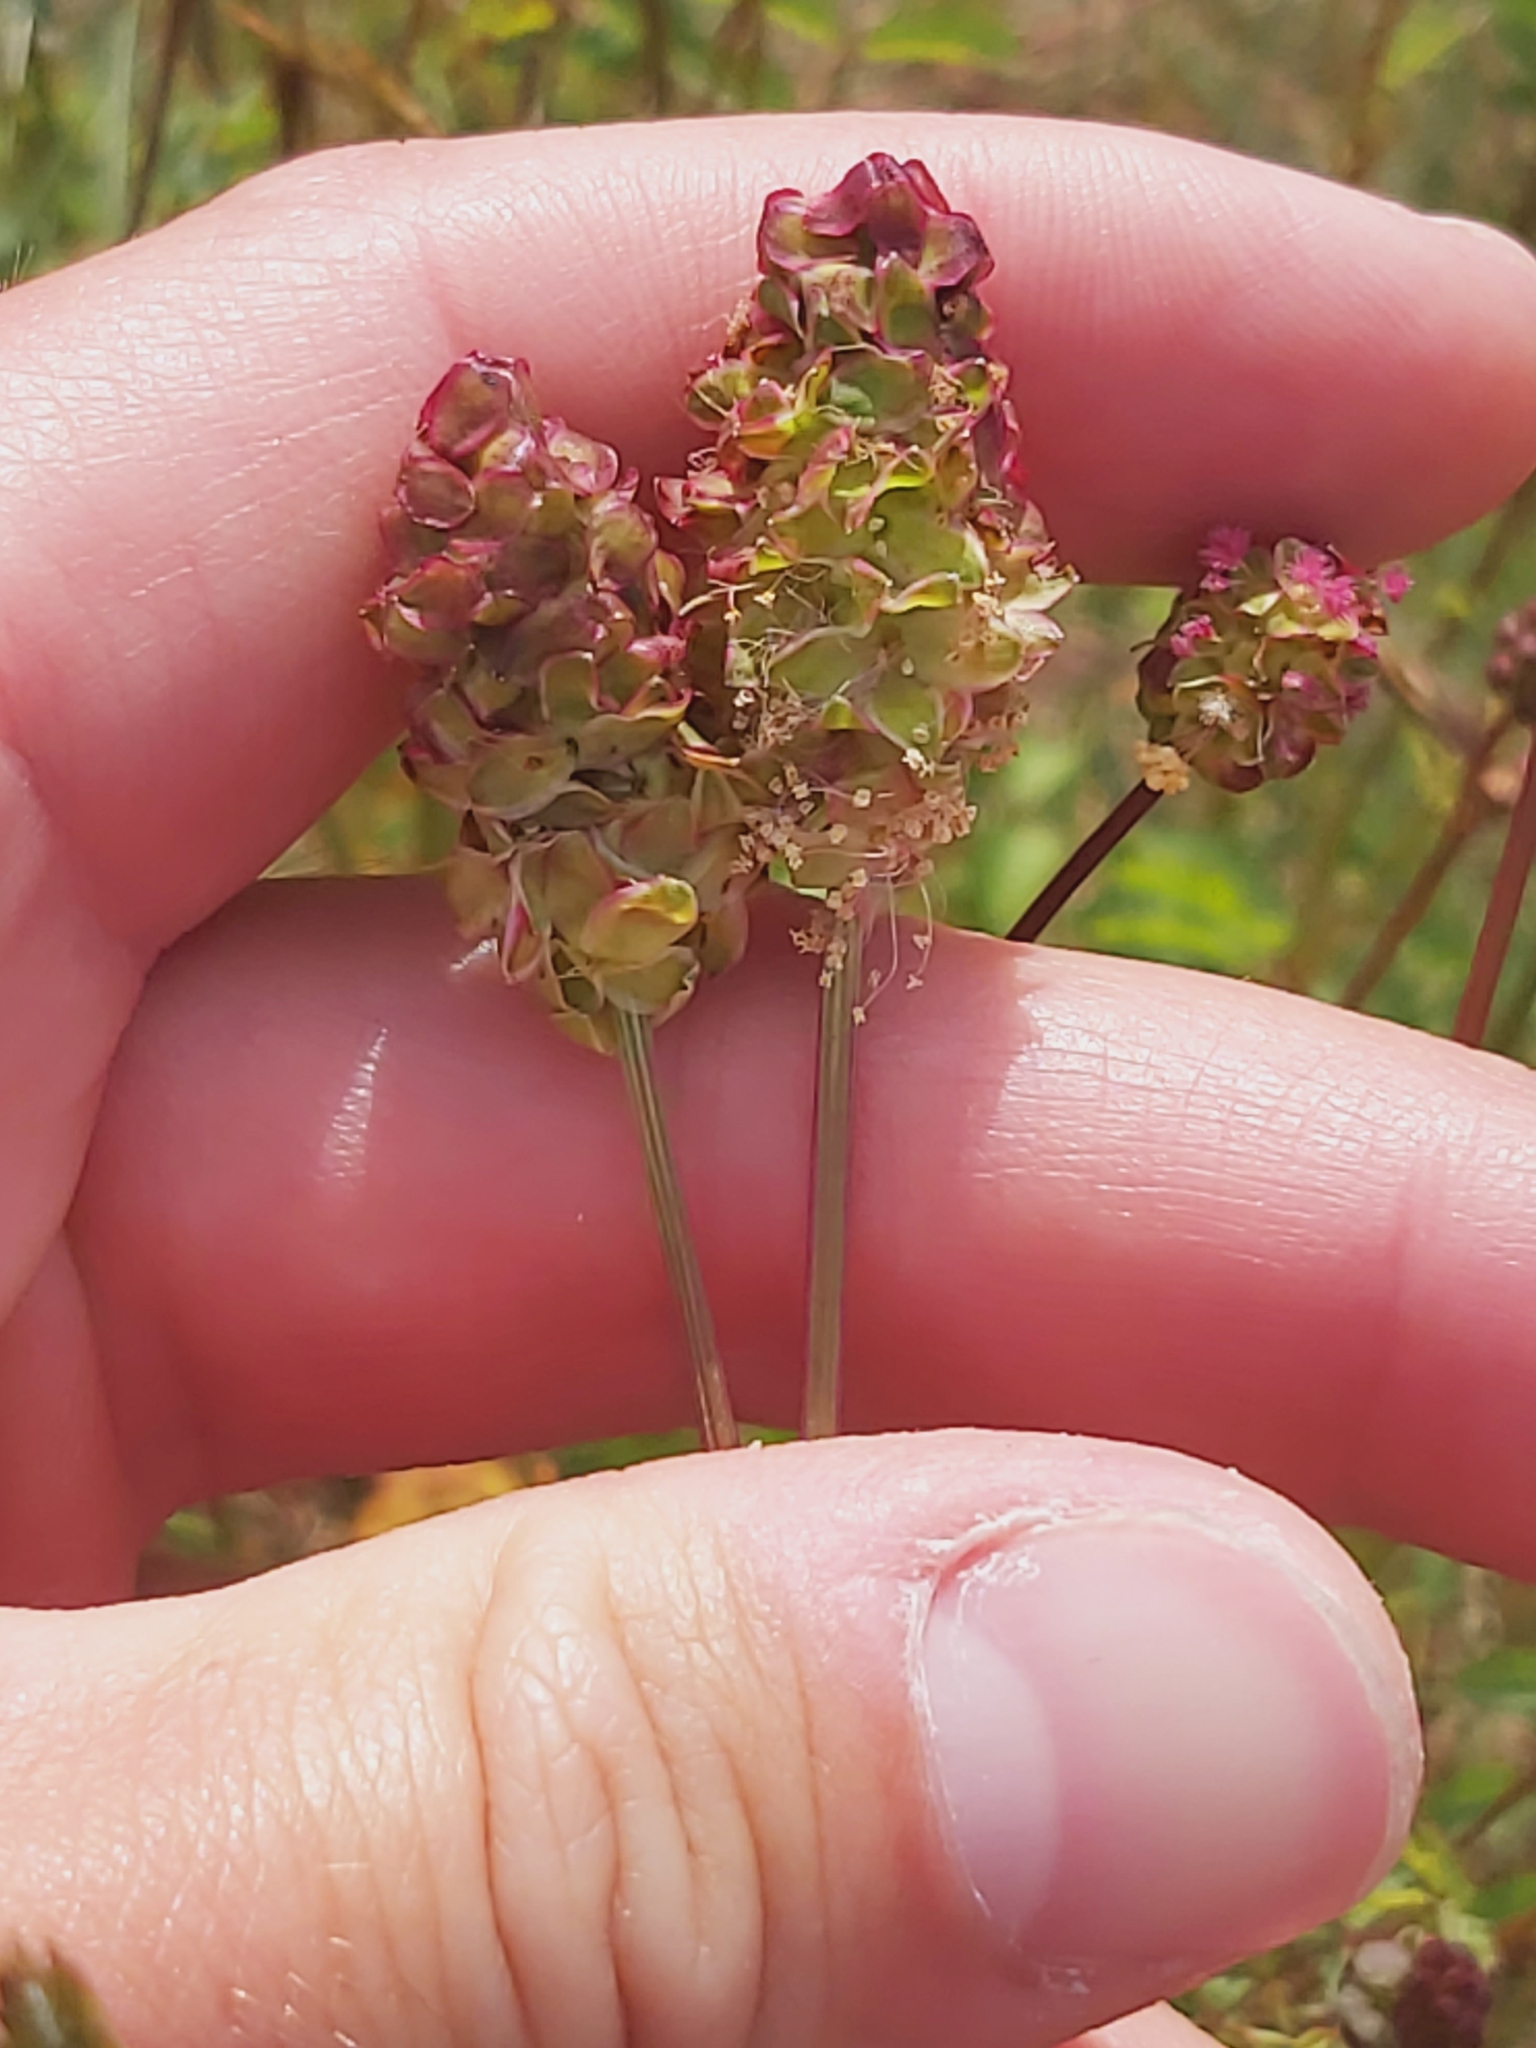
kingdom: Plantae
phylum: Tracheophyta
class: Magnoliopsida
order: Rosales
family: Rosaceae
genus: Poterium
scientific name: Poterium sanguisorba
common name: Salad burnet
